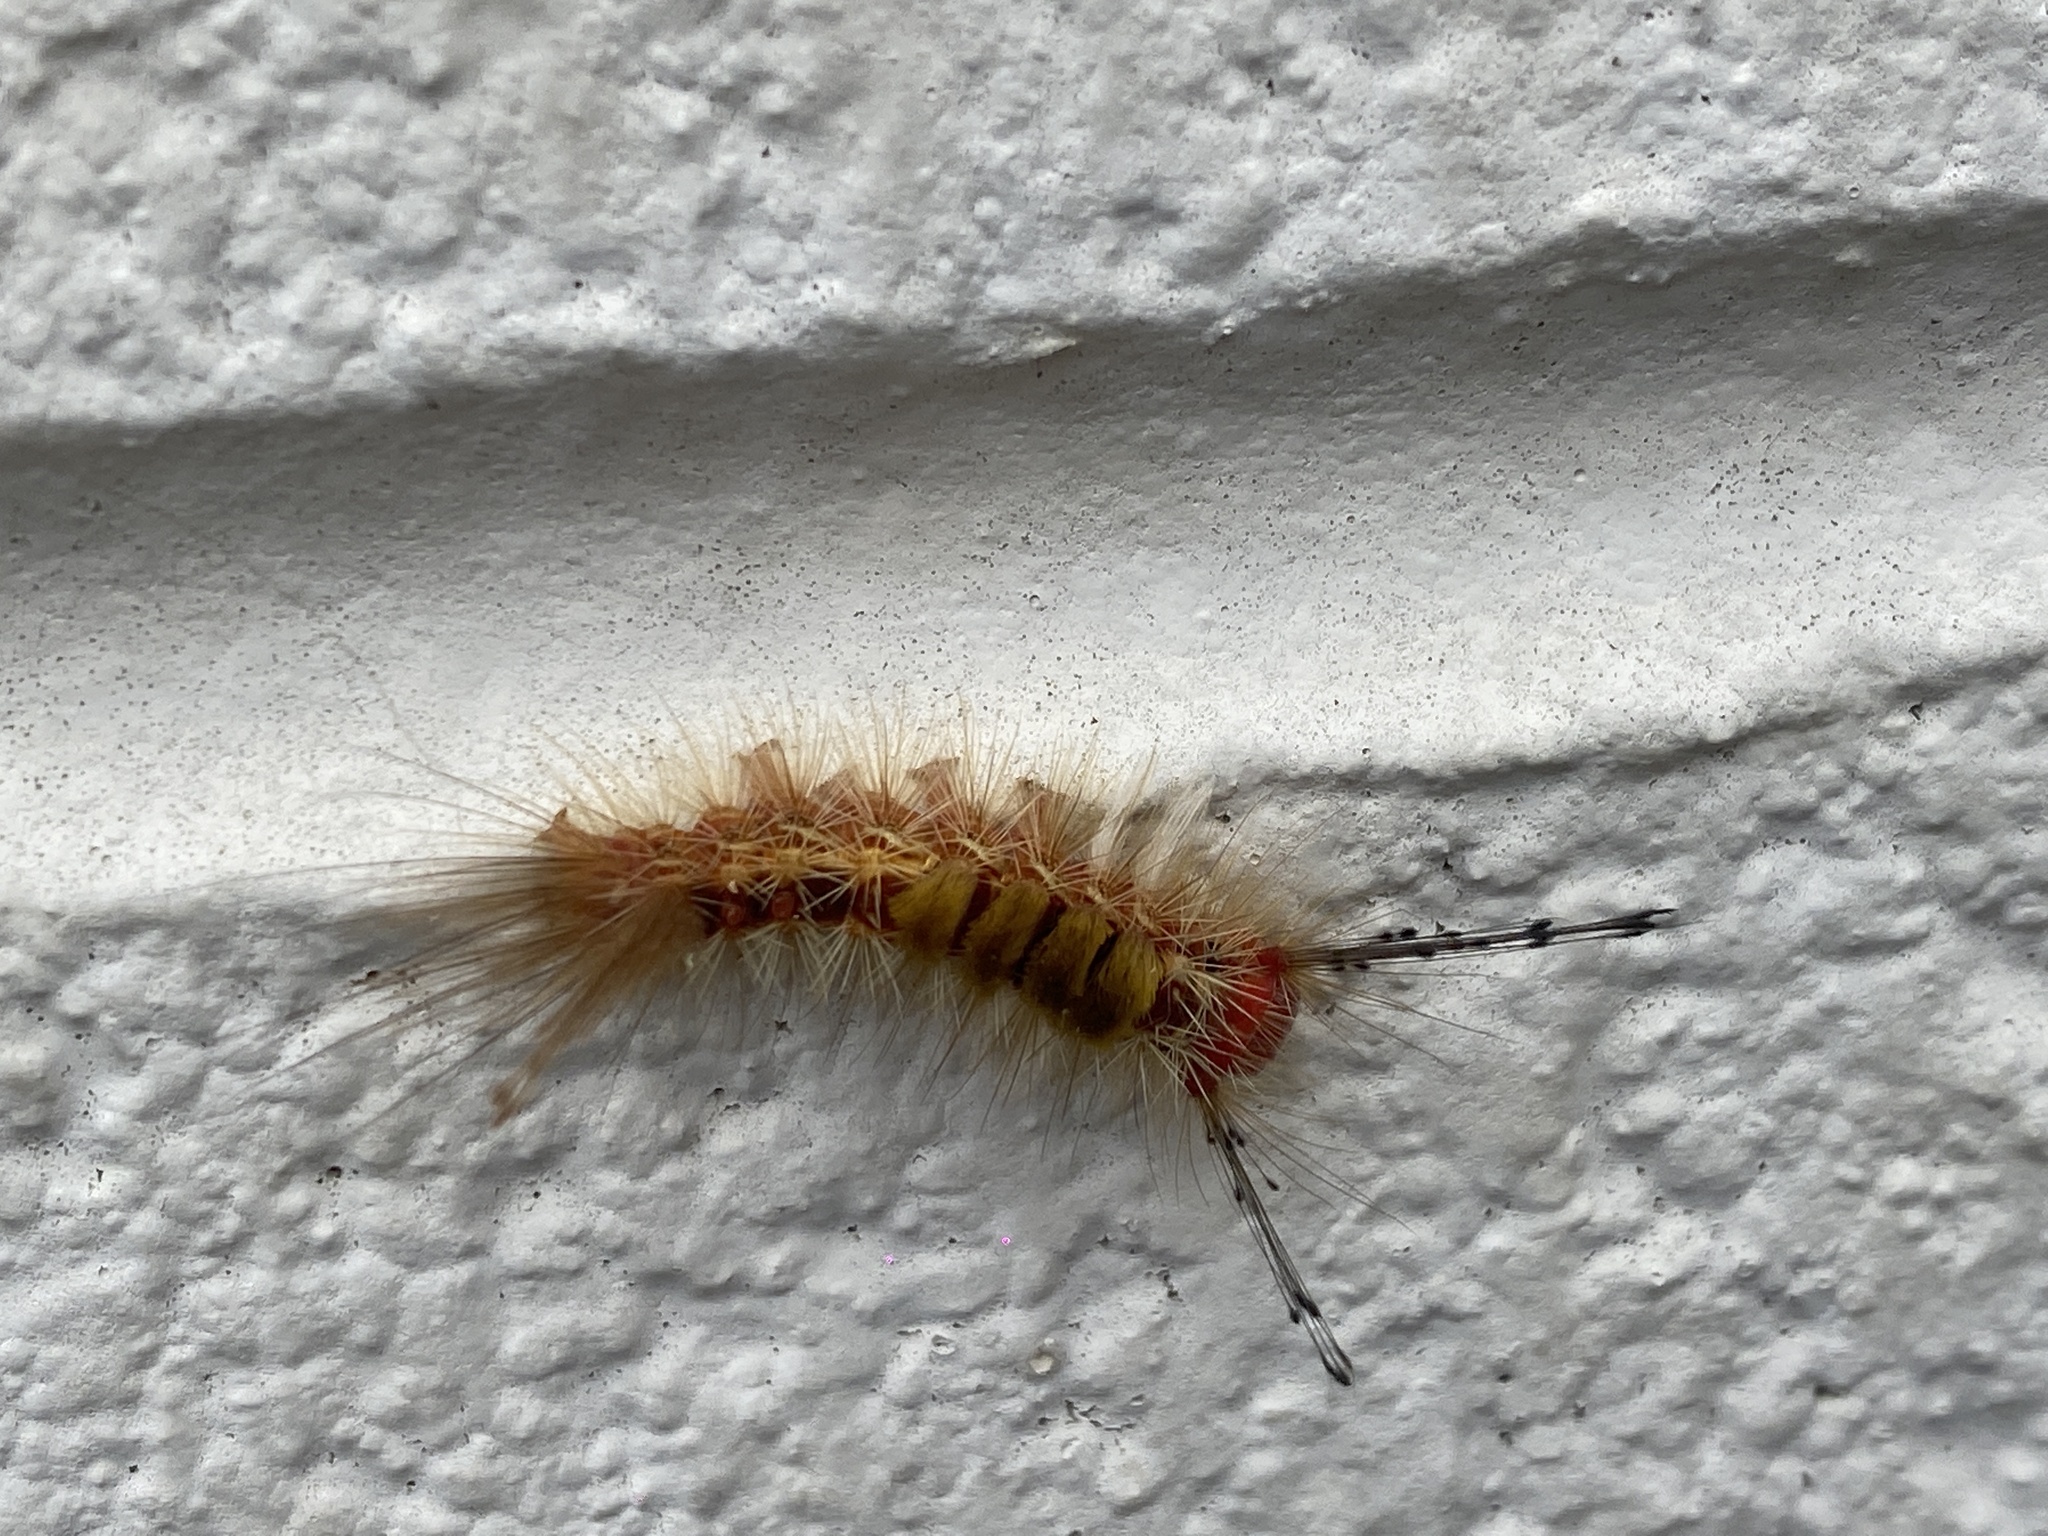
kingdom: Animalia
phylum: Arthropoda
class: Insecta
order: Lepidoptera
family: Erebidae
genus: Orgyia
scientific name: Orgyia australis
